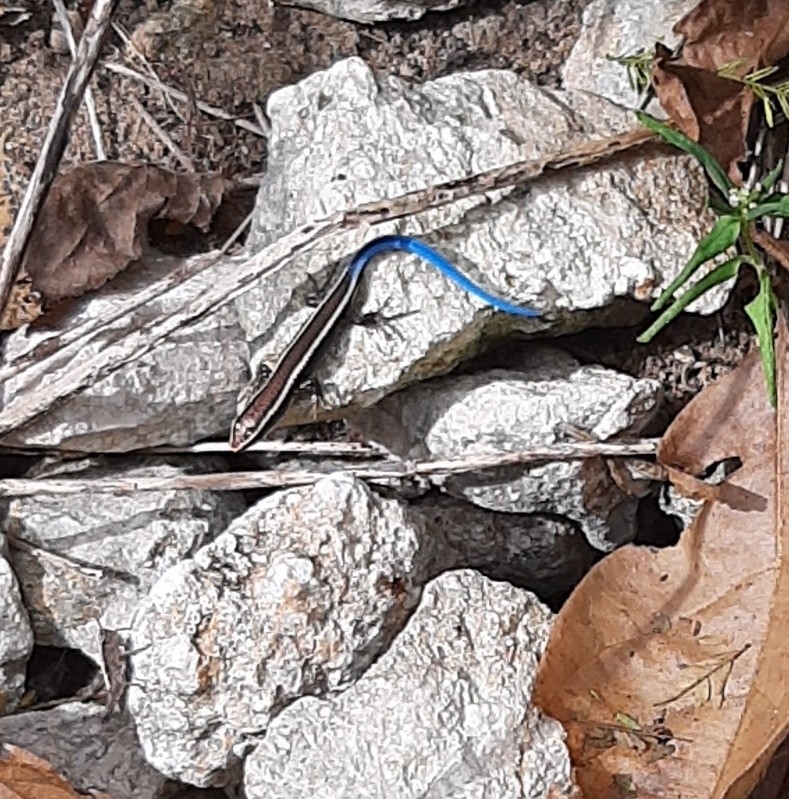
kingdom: Animalia
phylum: Chordata
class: Squamata
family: Gymnophthalmidae
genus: Tretioscincus
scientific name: Tretioscincus bifasciatus
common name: Rio magdalena tegu
